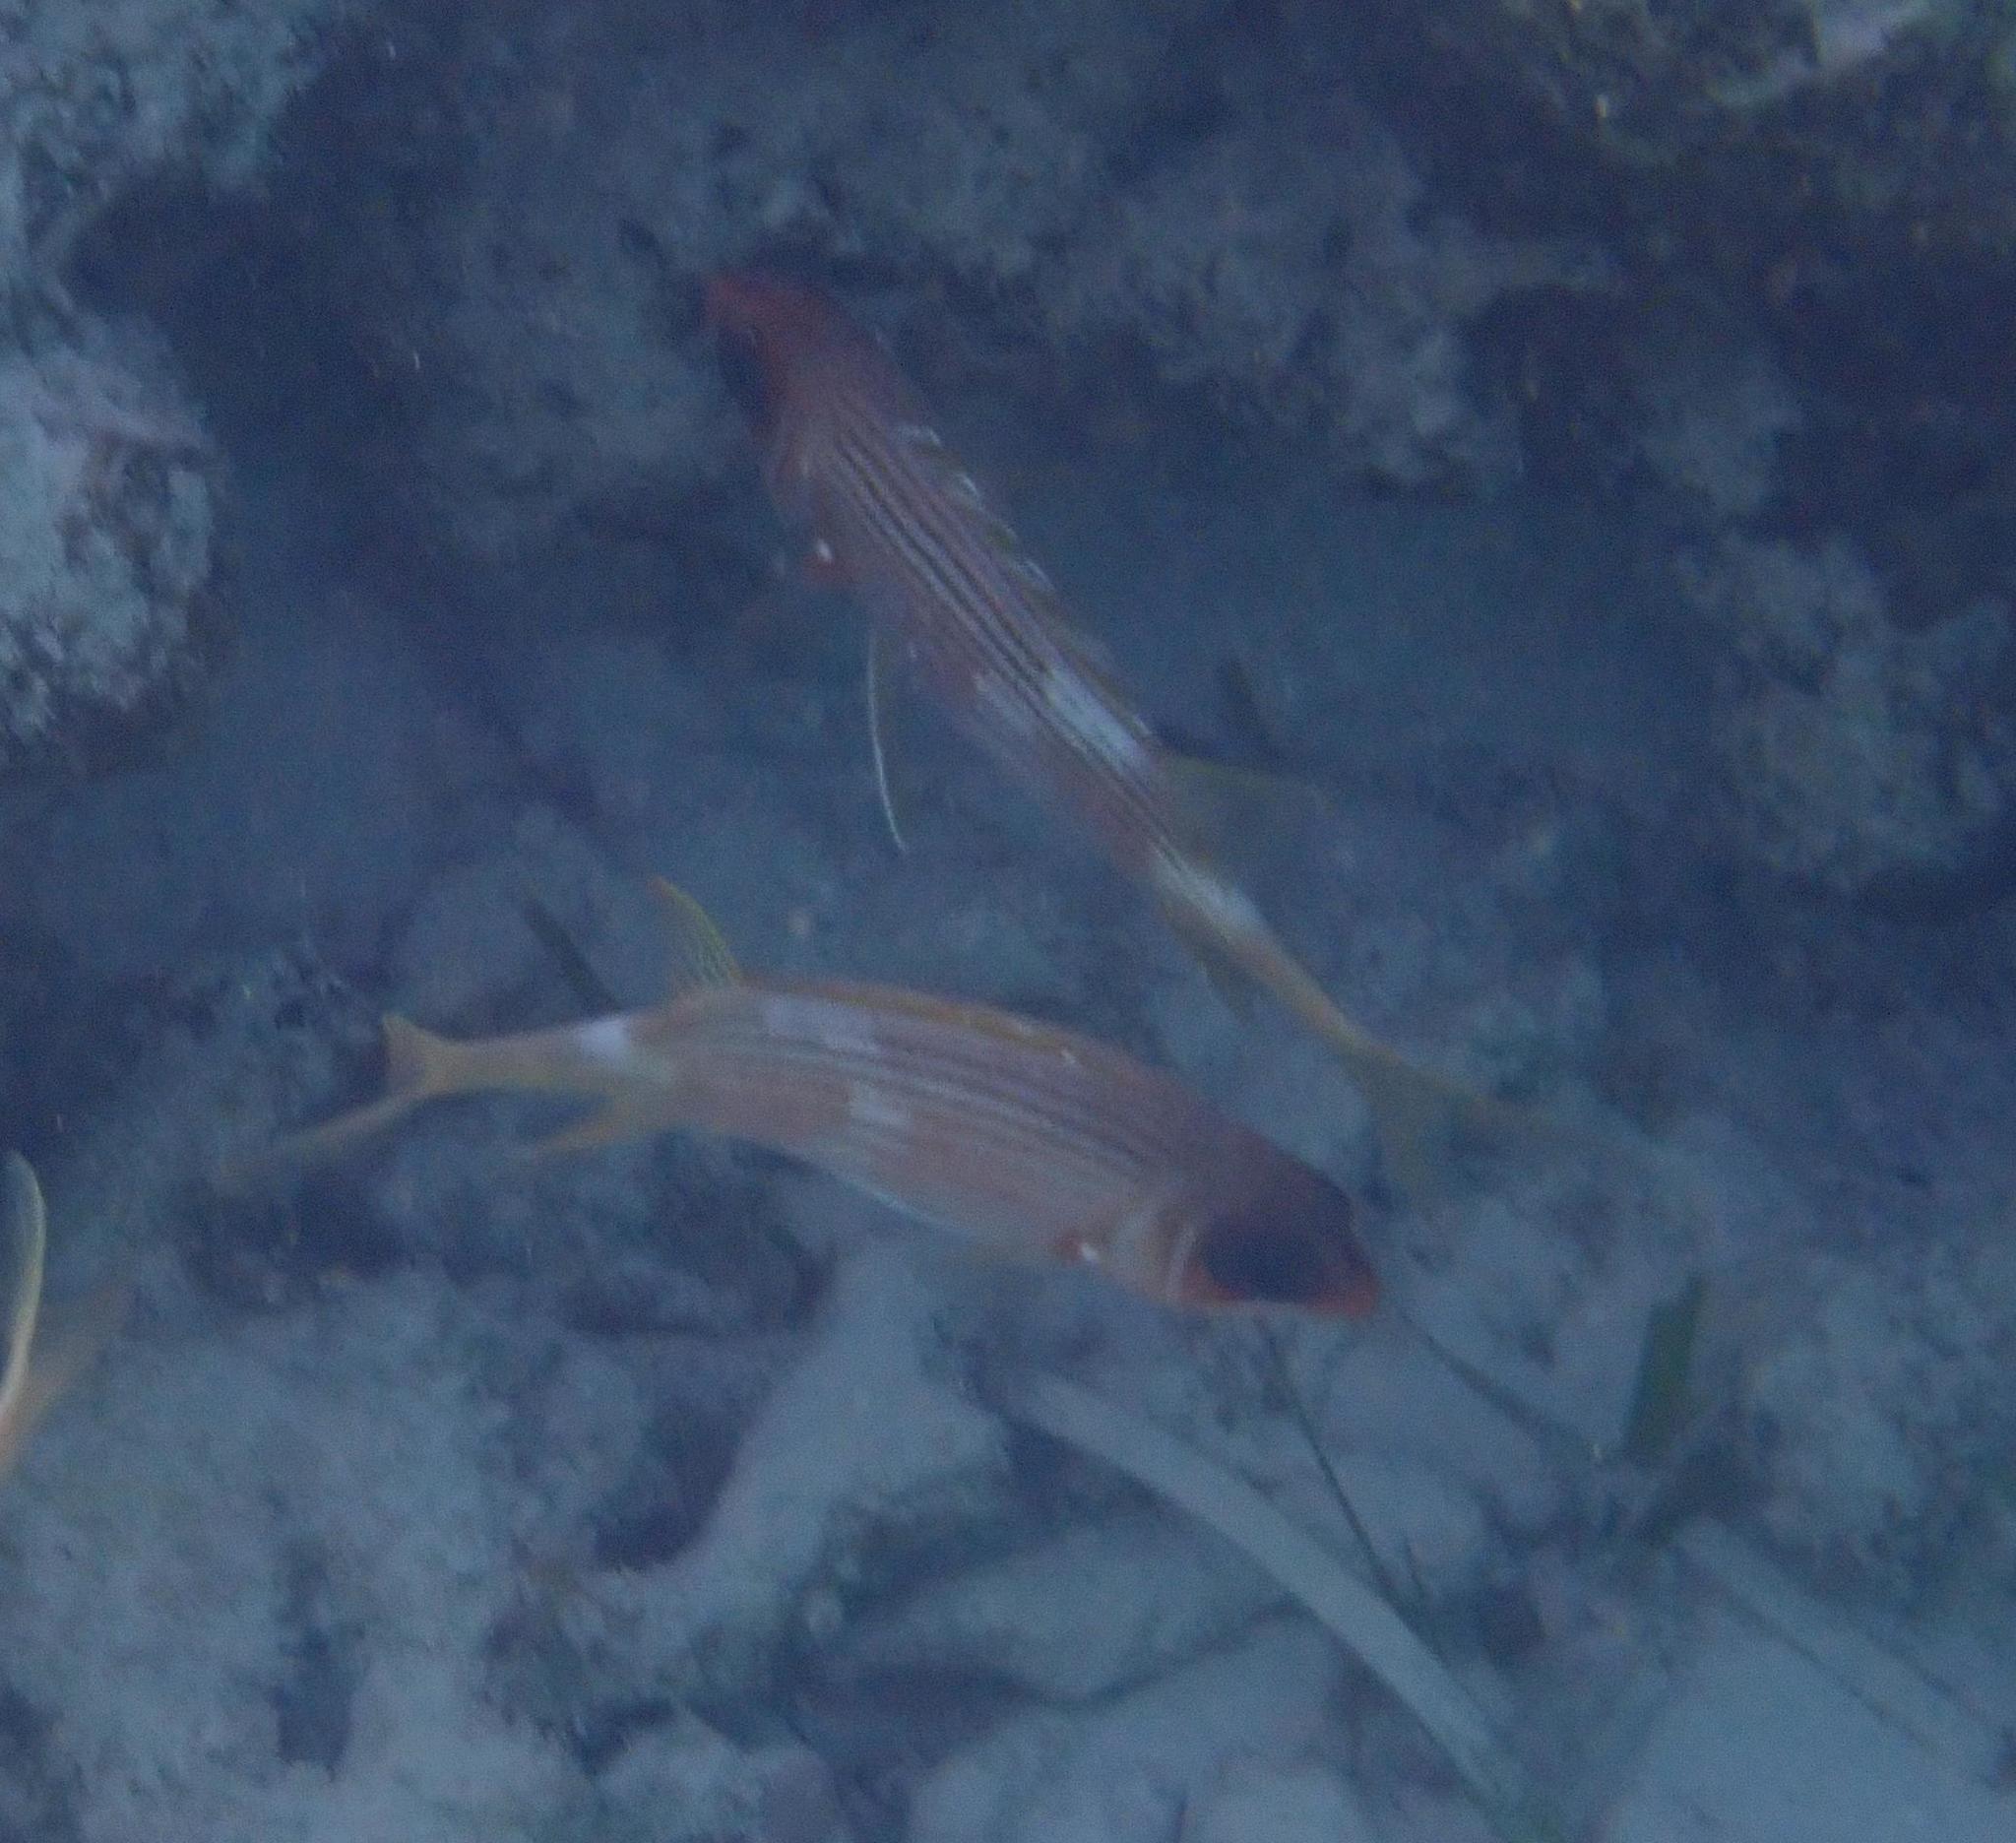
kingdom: Animalia
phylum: Chordata
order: Beryciformes
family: Holocentridae
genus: Holocentrus
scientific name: Holocentrus rufus
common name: Longspine squirrelfish
